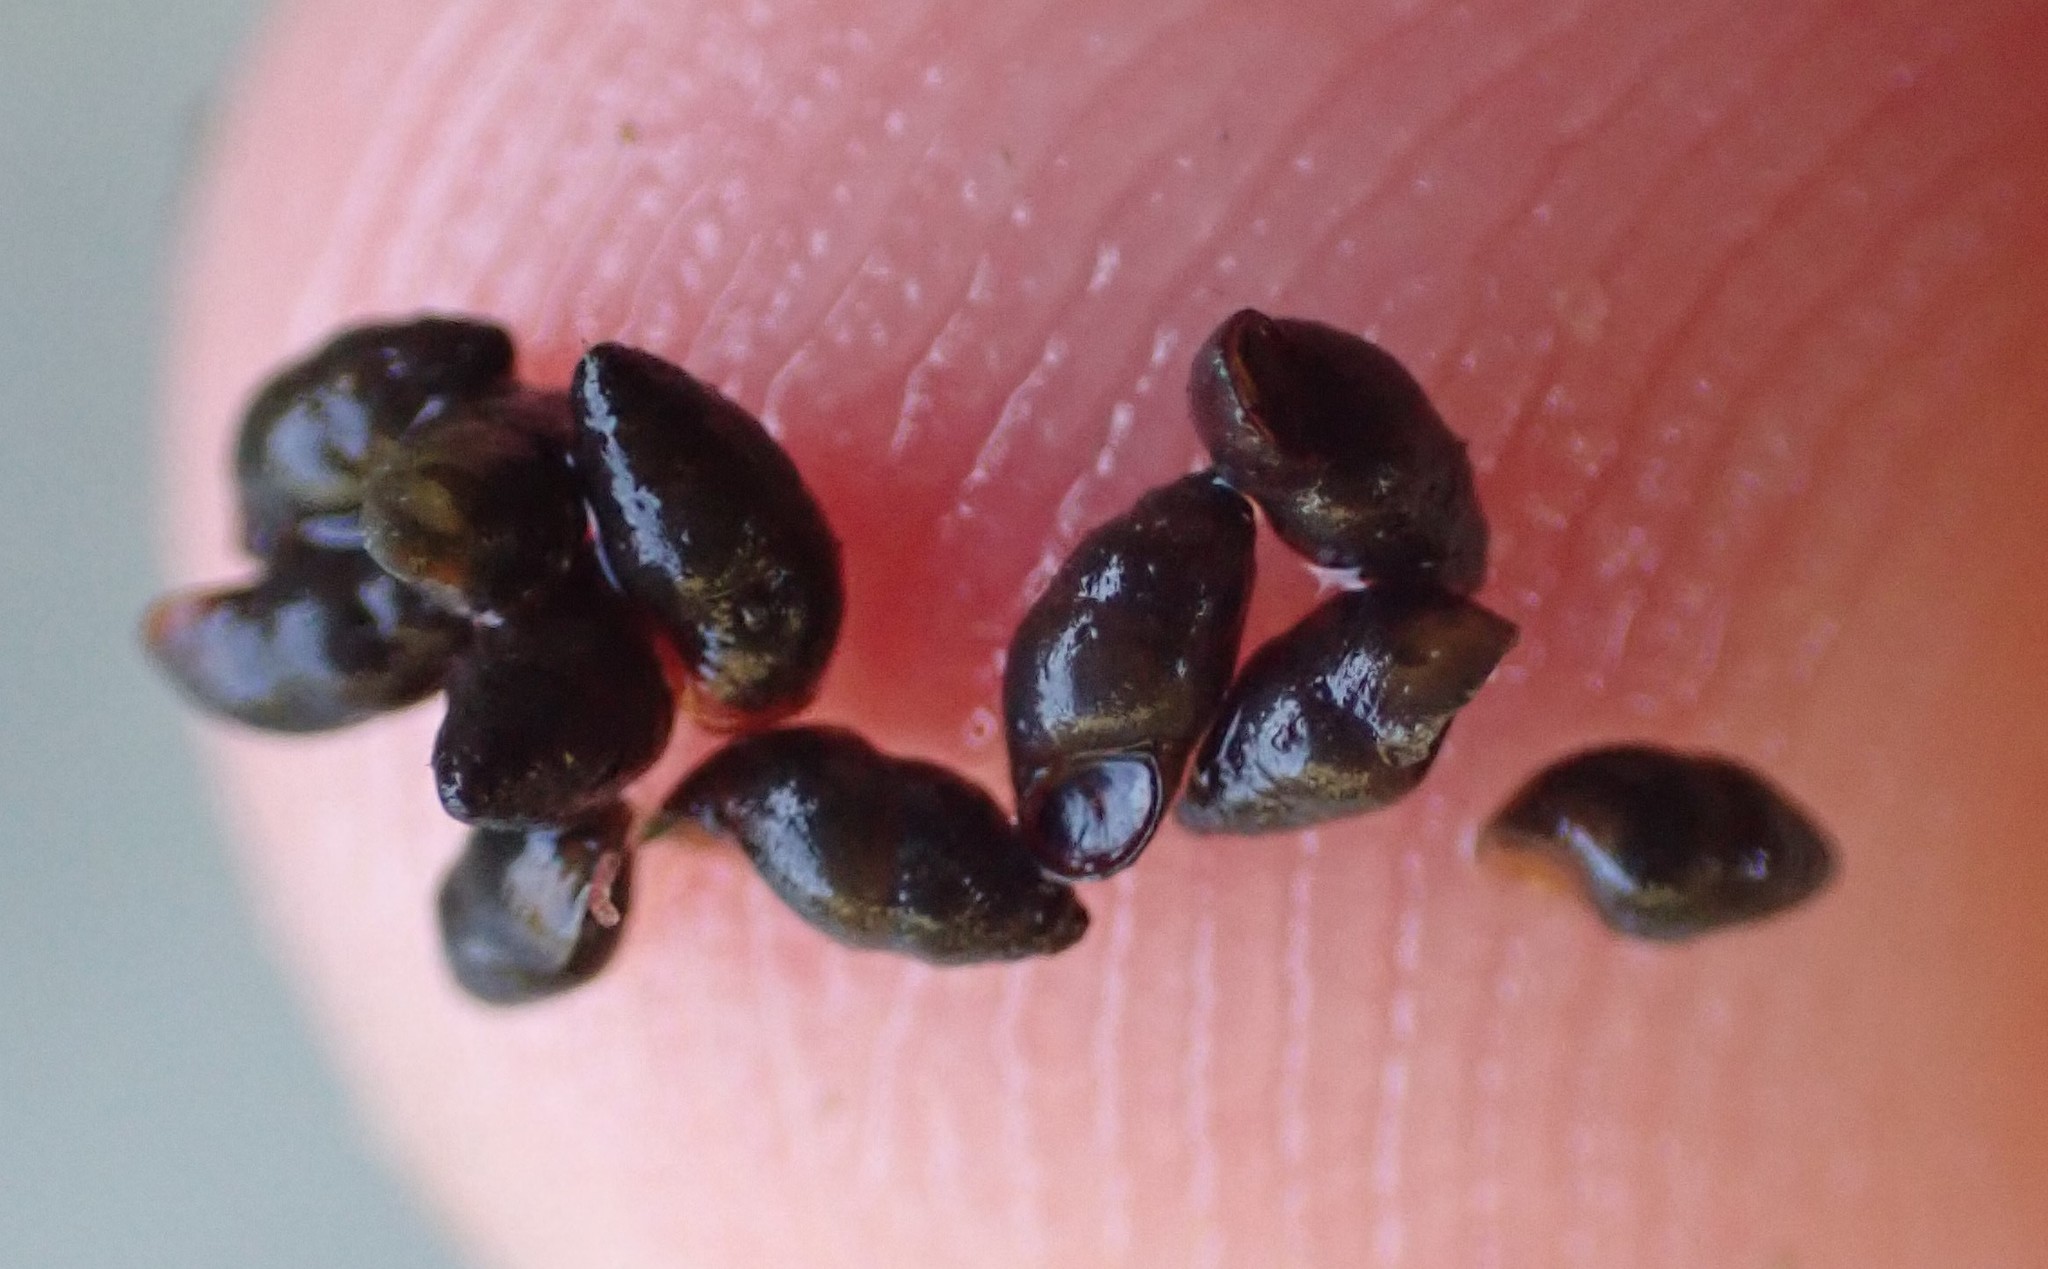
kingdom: Animalia
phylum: Mollusca
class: Gastropoda
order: Littorinimorpha
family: Tateidae
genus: Halopyrgus
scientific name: Halopyrgus pupoides
